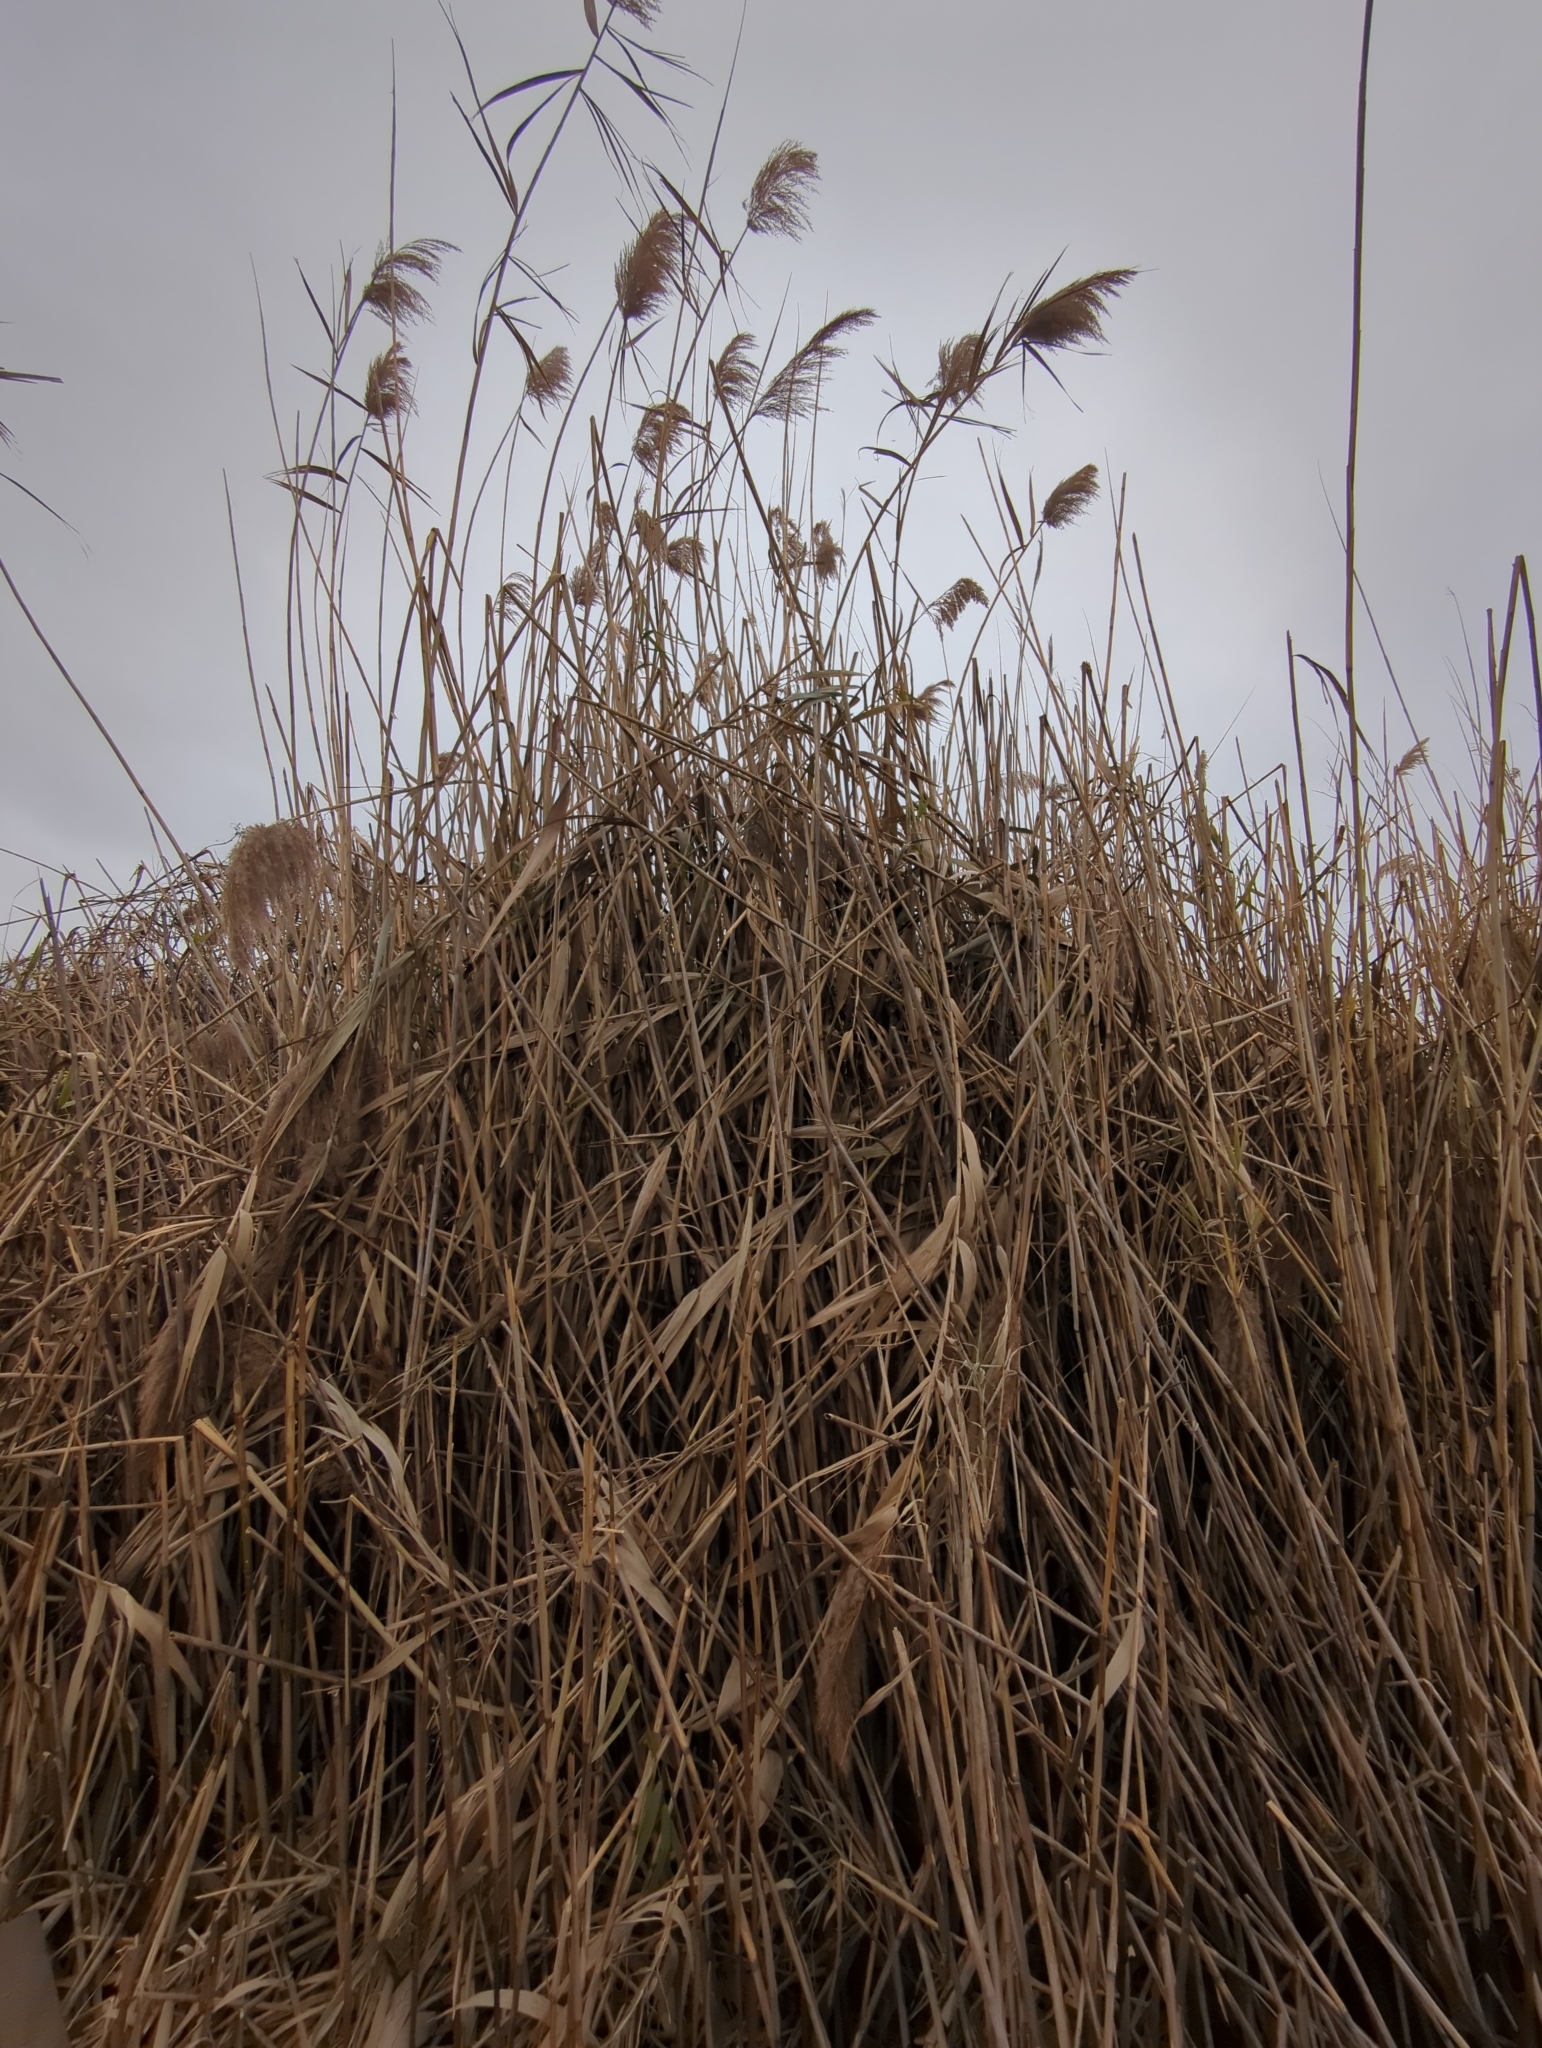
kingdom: Plantae
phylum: Tracheophyta
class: Liliopsida
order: Poales
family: Poaceae
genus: Phragmites
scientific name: Phragmites australis
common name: Common reed
